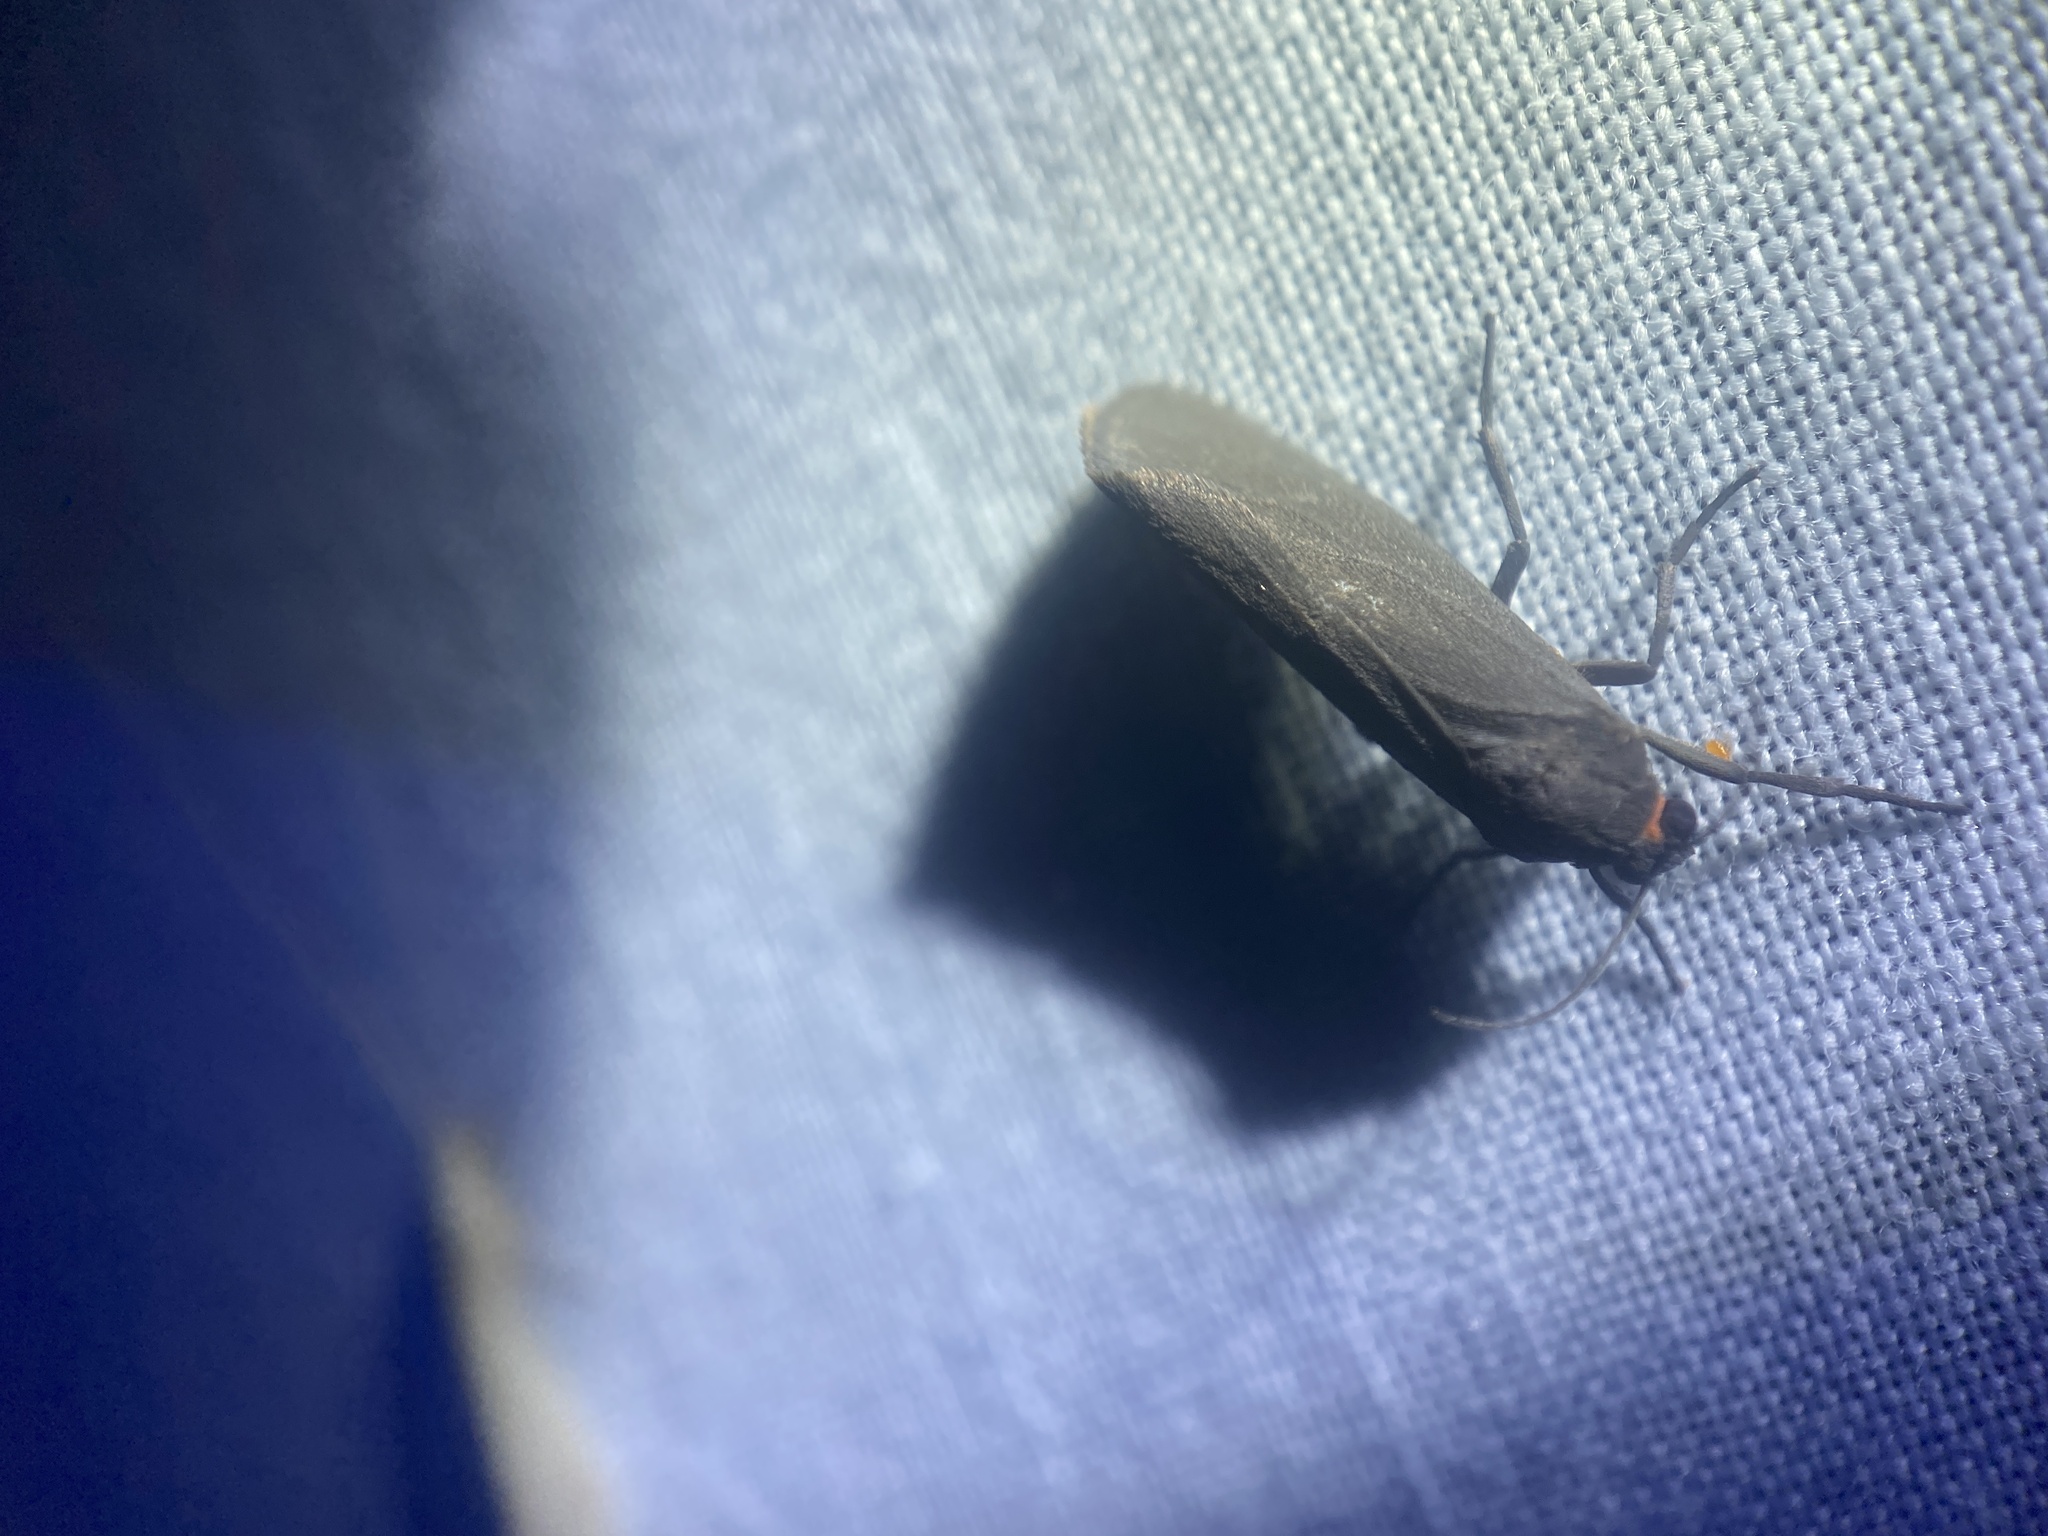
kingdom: Animalia
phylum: Arthropoda
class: Insecta
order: Lepidoptera
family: Erebidae
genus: Virbia
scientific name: Virbia laeta
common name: Joyful holomelina moth
